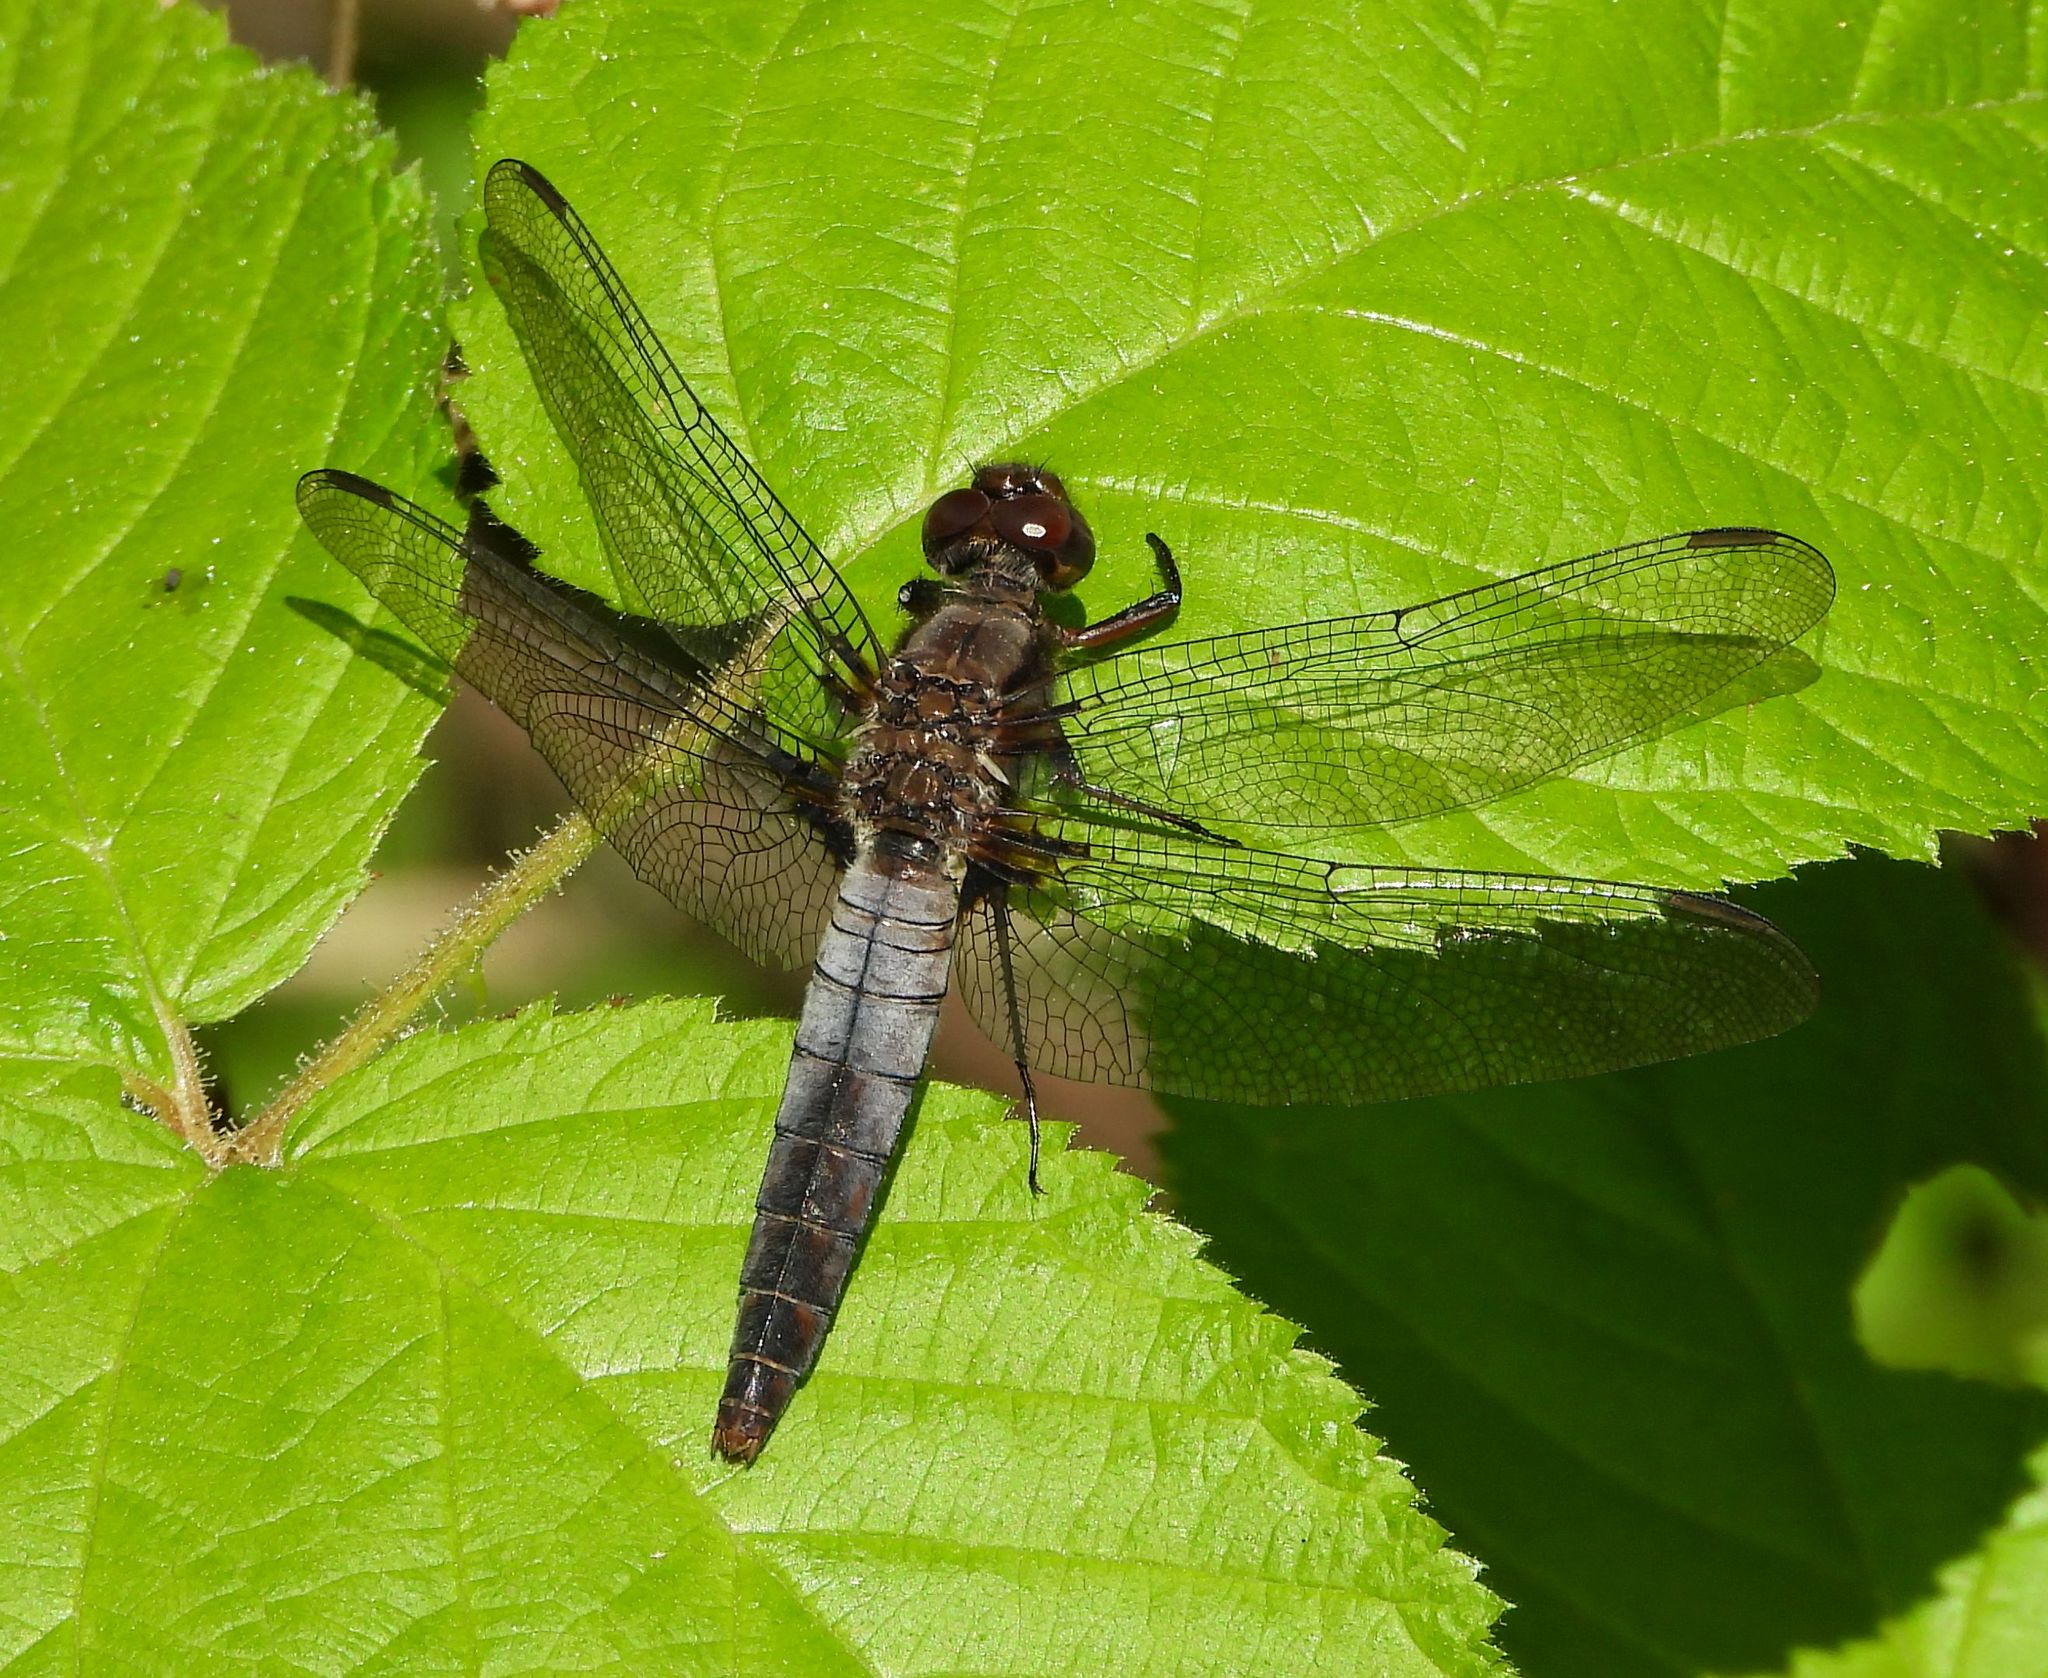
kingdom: Animalia
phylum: Arthropoda
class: Insecta
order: Odonata
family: Libellulidae
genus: Ladona
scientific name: Ladona julia
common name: Chalk-fronted corporal
